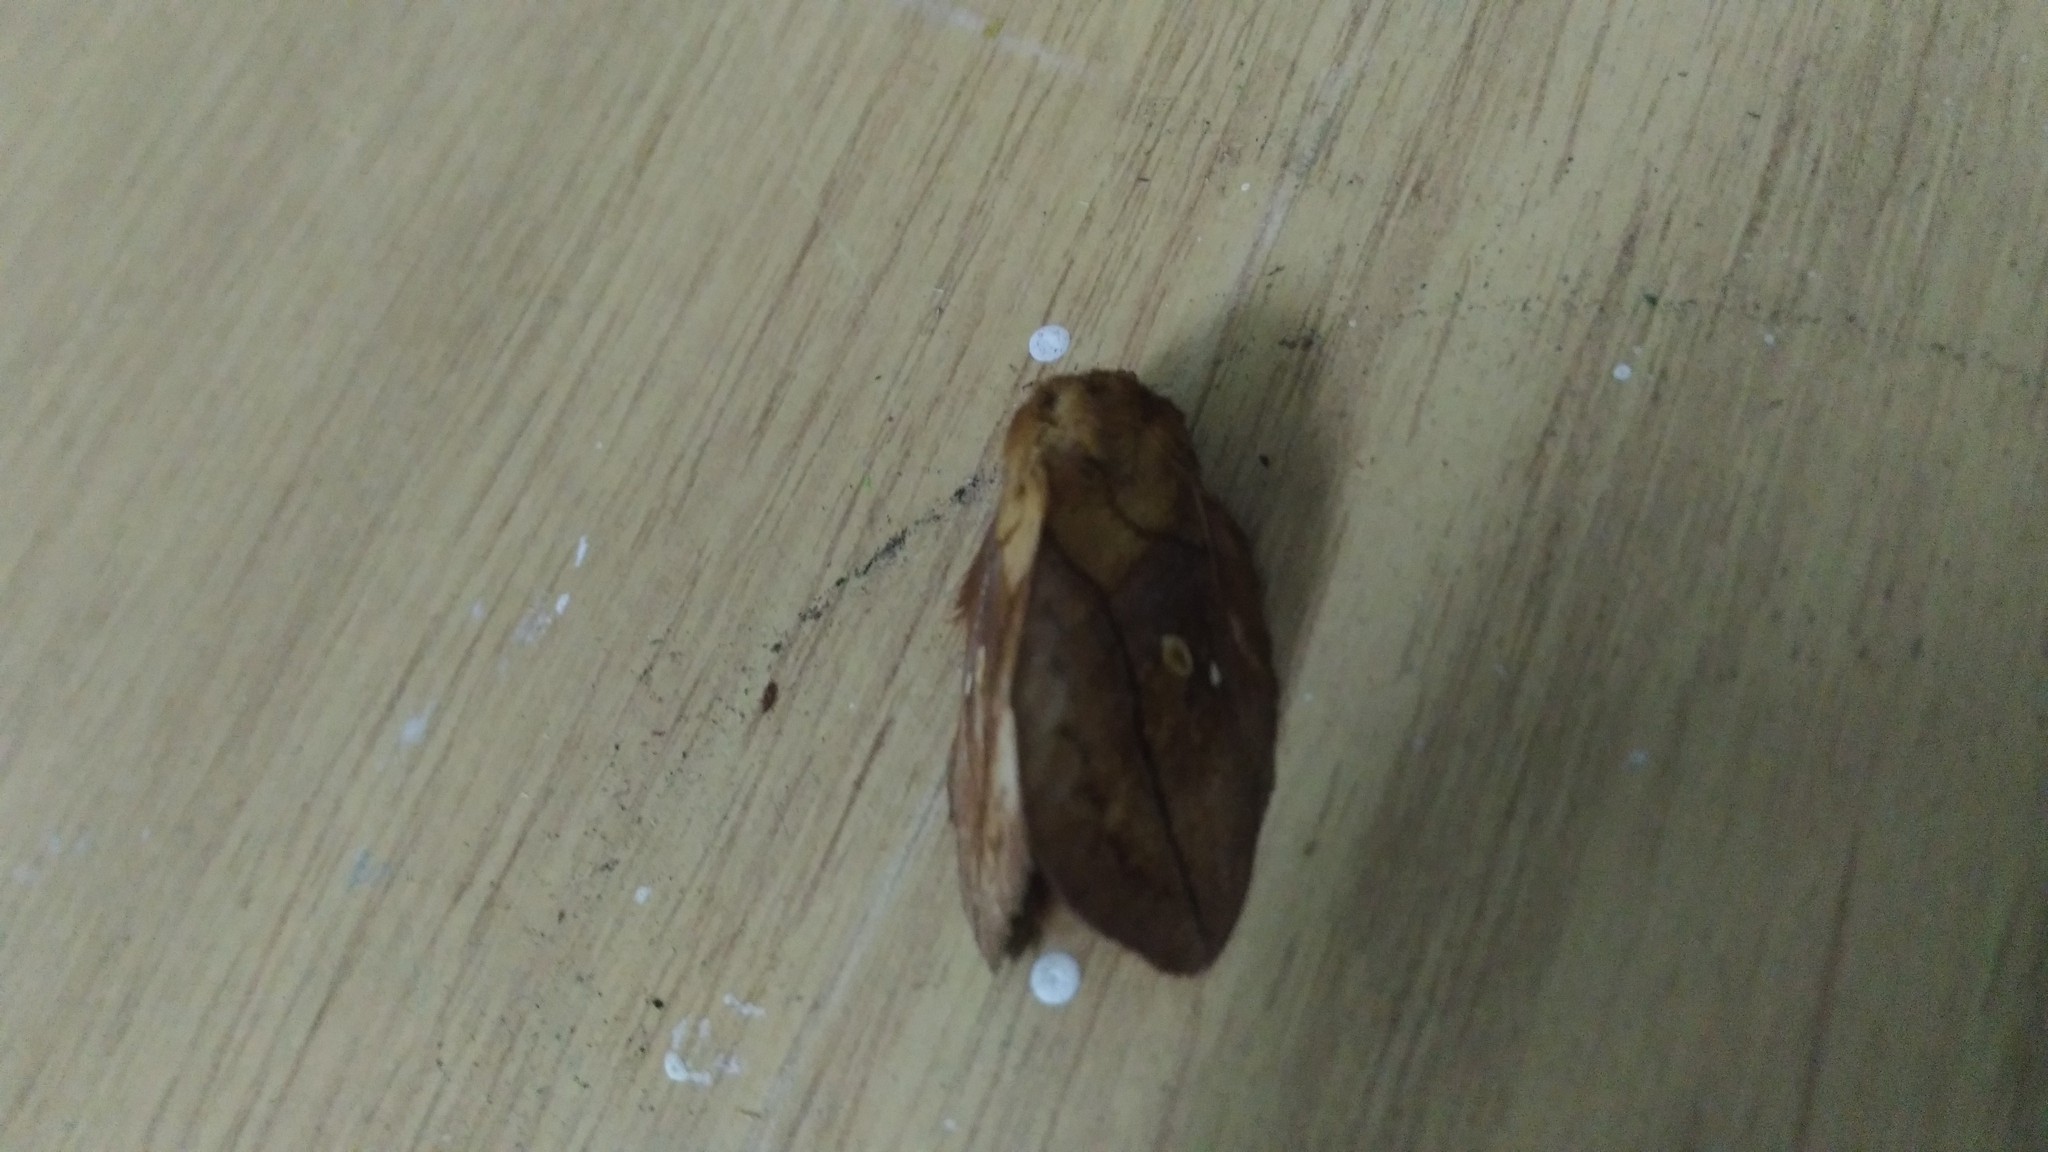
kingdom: Animalia
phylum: Arthropoda
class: Insecta
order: Lepidoptera
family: Lasiocampidae
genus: Euthrix
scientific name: Euthrix potatoria
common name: Drinker
